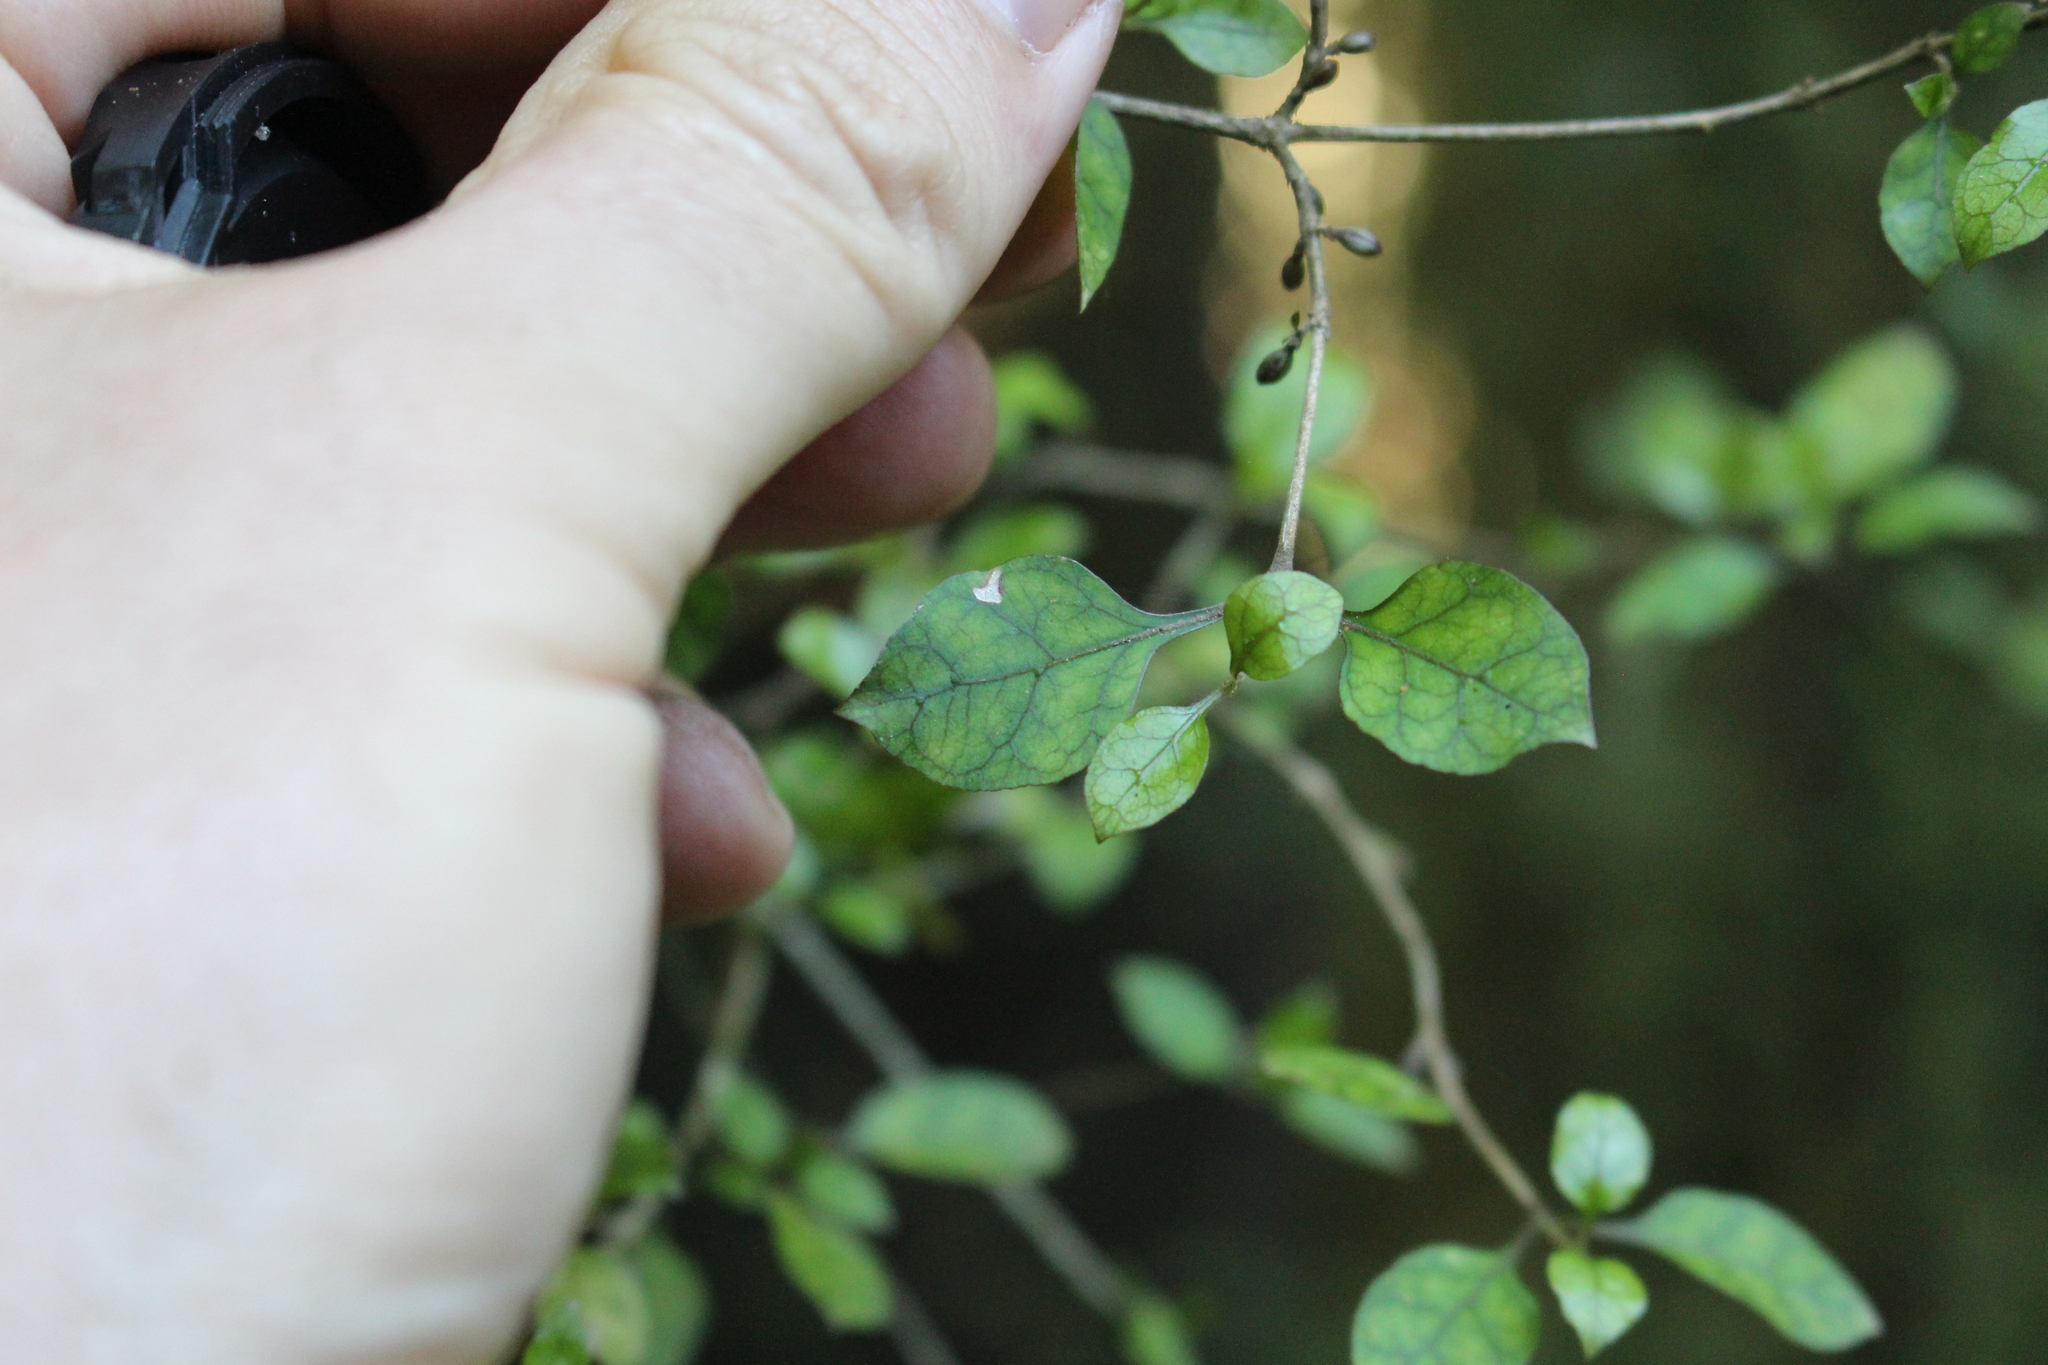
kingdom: Plantae
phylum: Tracheophyta
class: Magnoliopsida
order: Gentianales
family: Rubiaceae
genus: Coprosma
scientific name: Coprosma areolata
